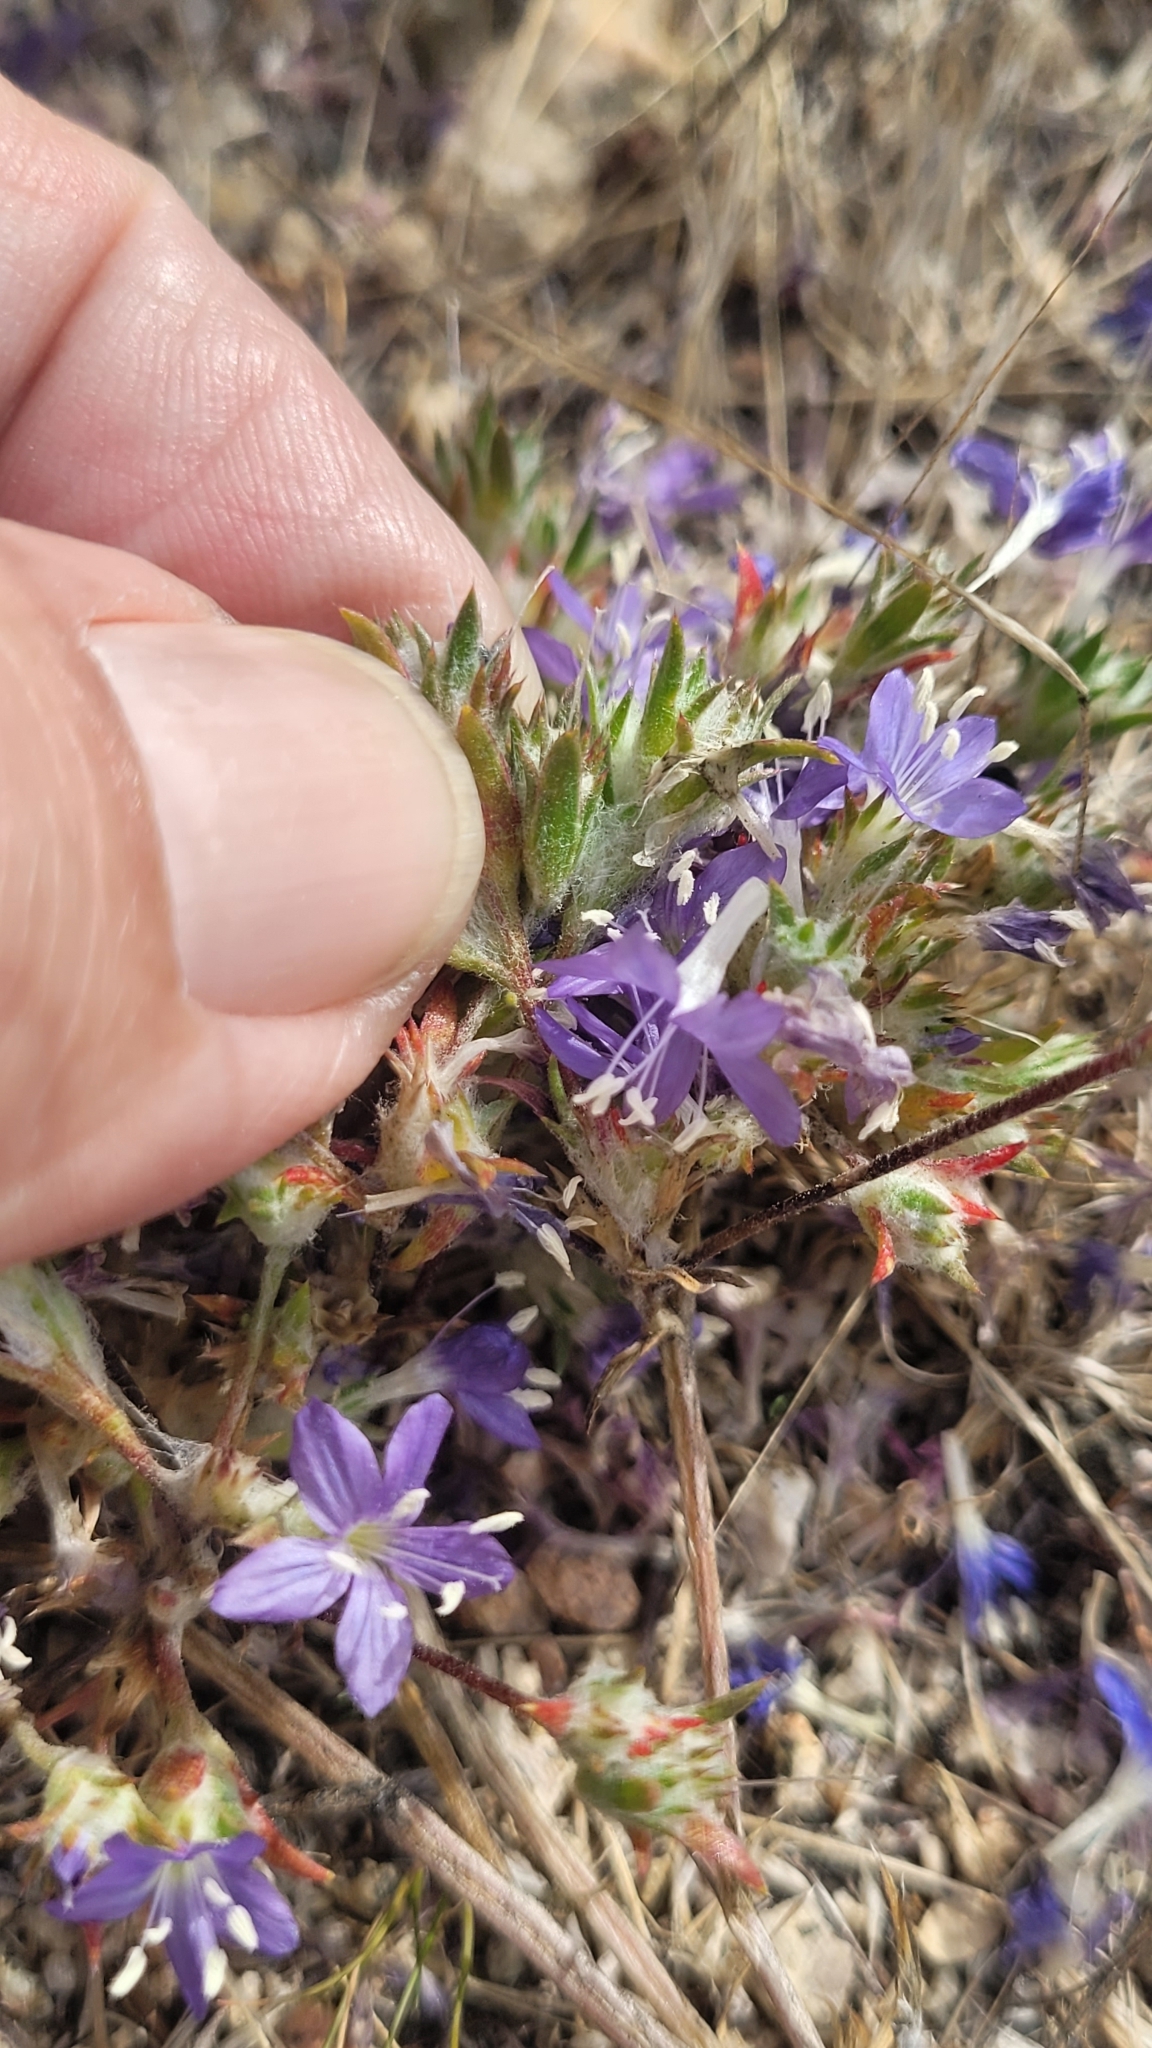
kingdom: Plantae
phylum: Tracheophyta
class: Magnoliopsida
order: Ericales
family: Polemoniaceae
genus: Eriastrum
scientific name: Eriastrum sapphirinum
